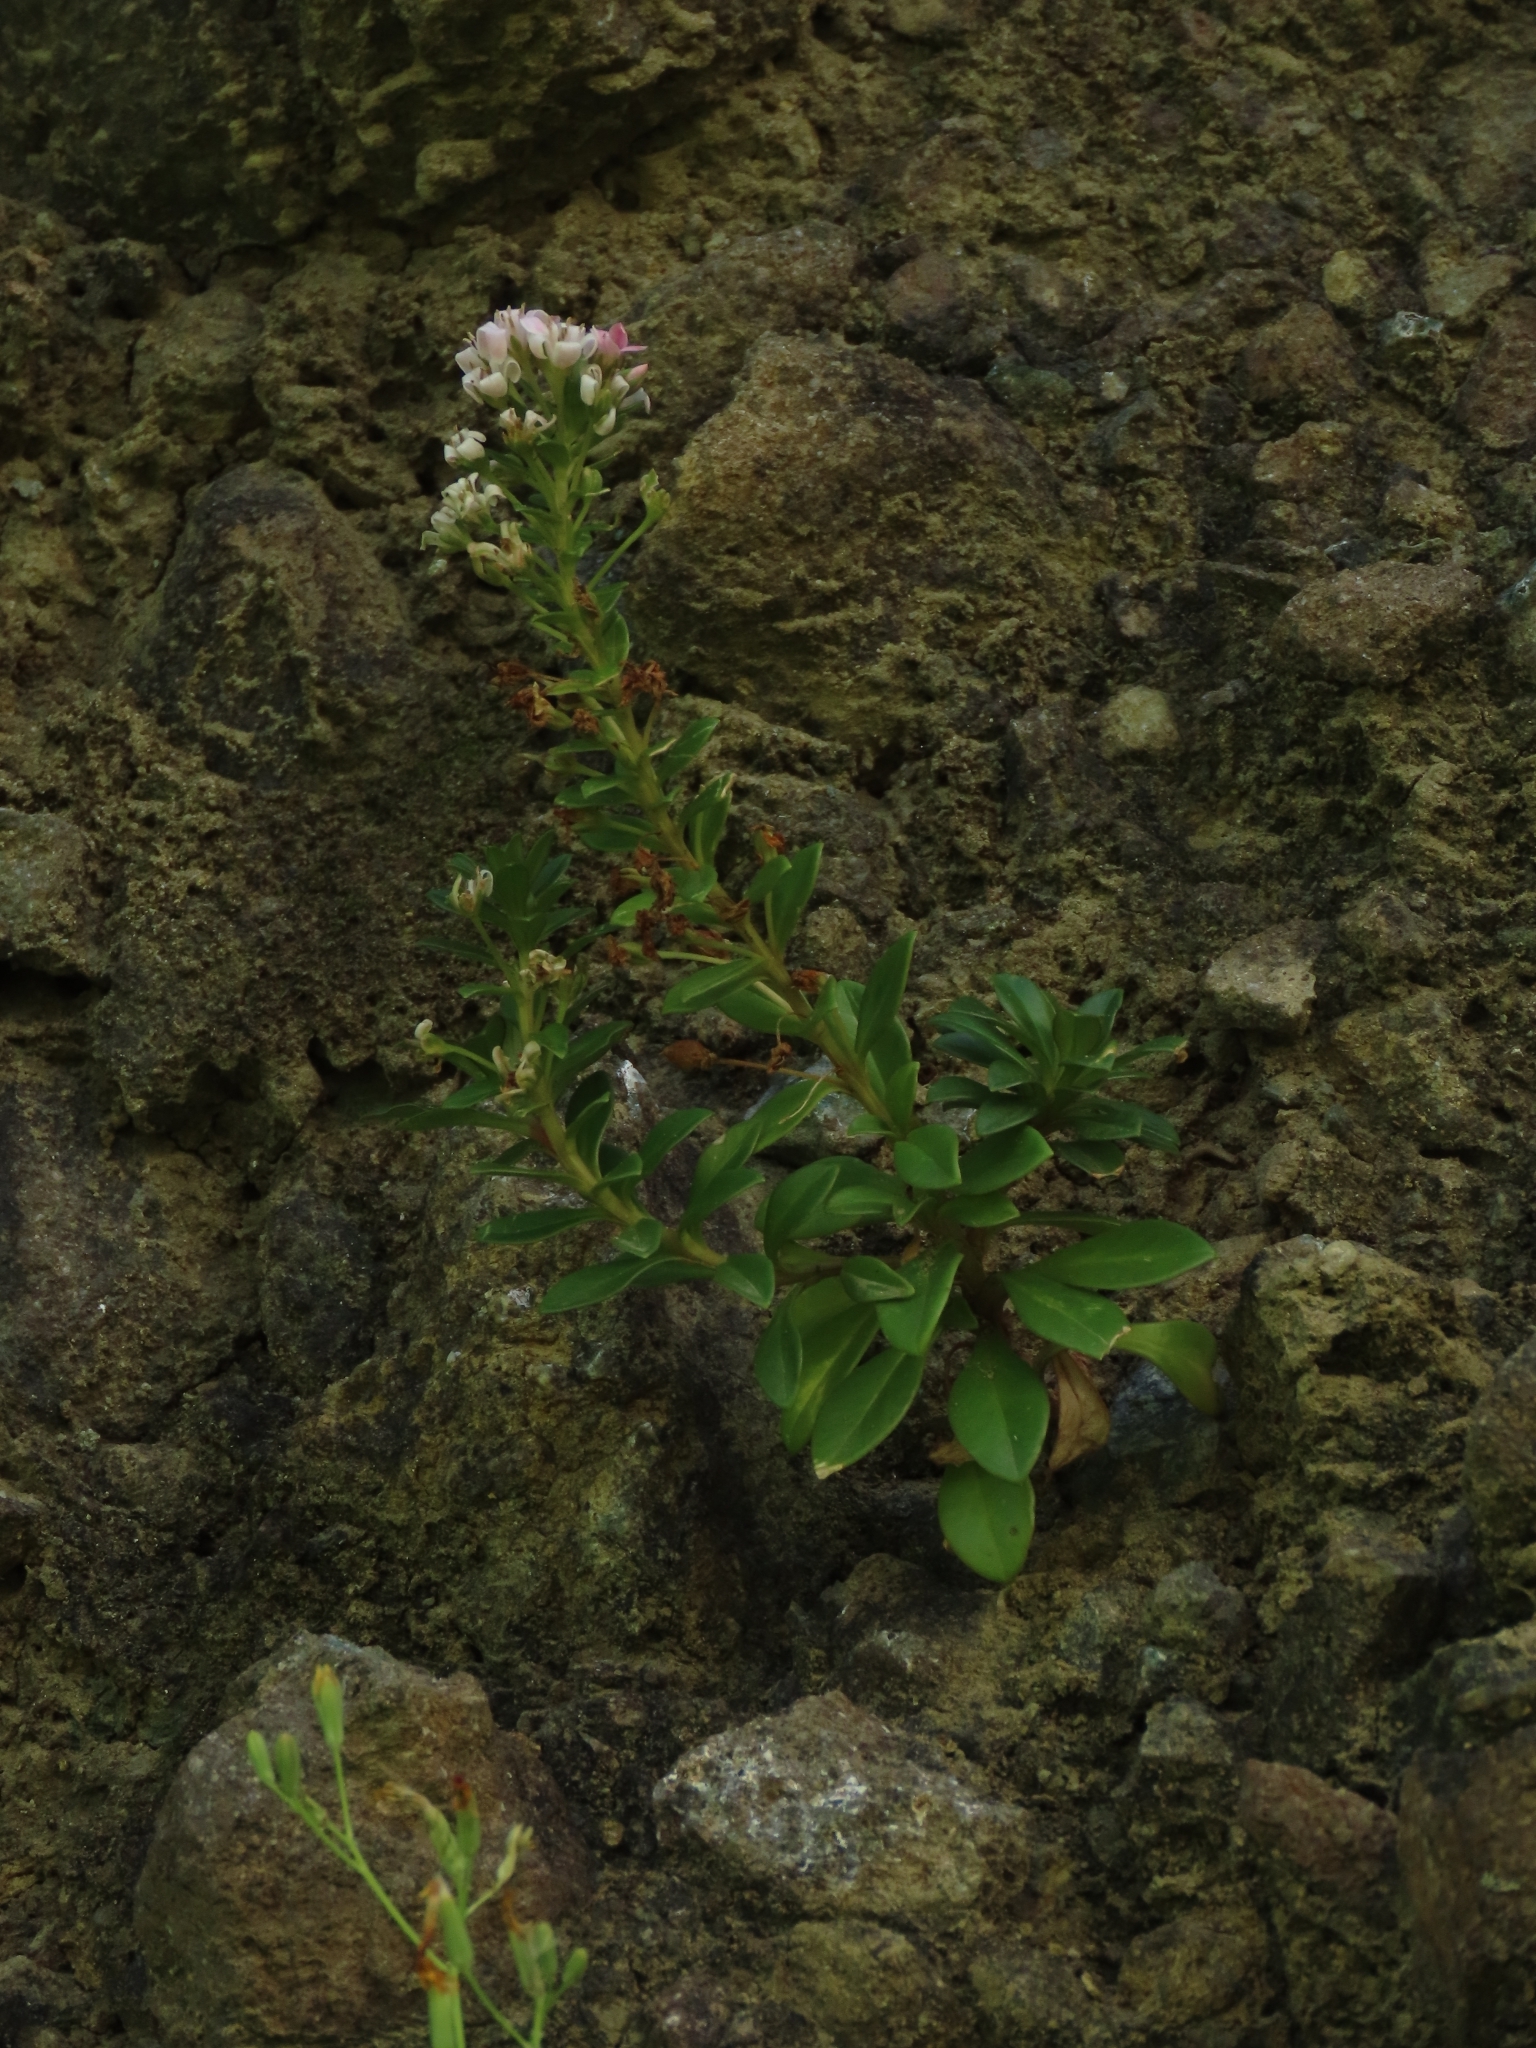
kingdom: Plantae
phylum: Tracheophyta
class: Magnoliopsida
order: Ericales
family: Primulaceae
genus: Lysimachia
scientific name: Lysimachia mauritiana
